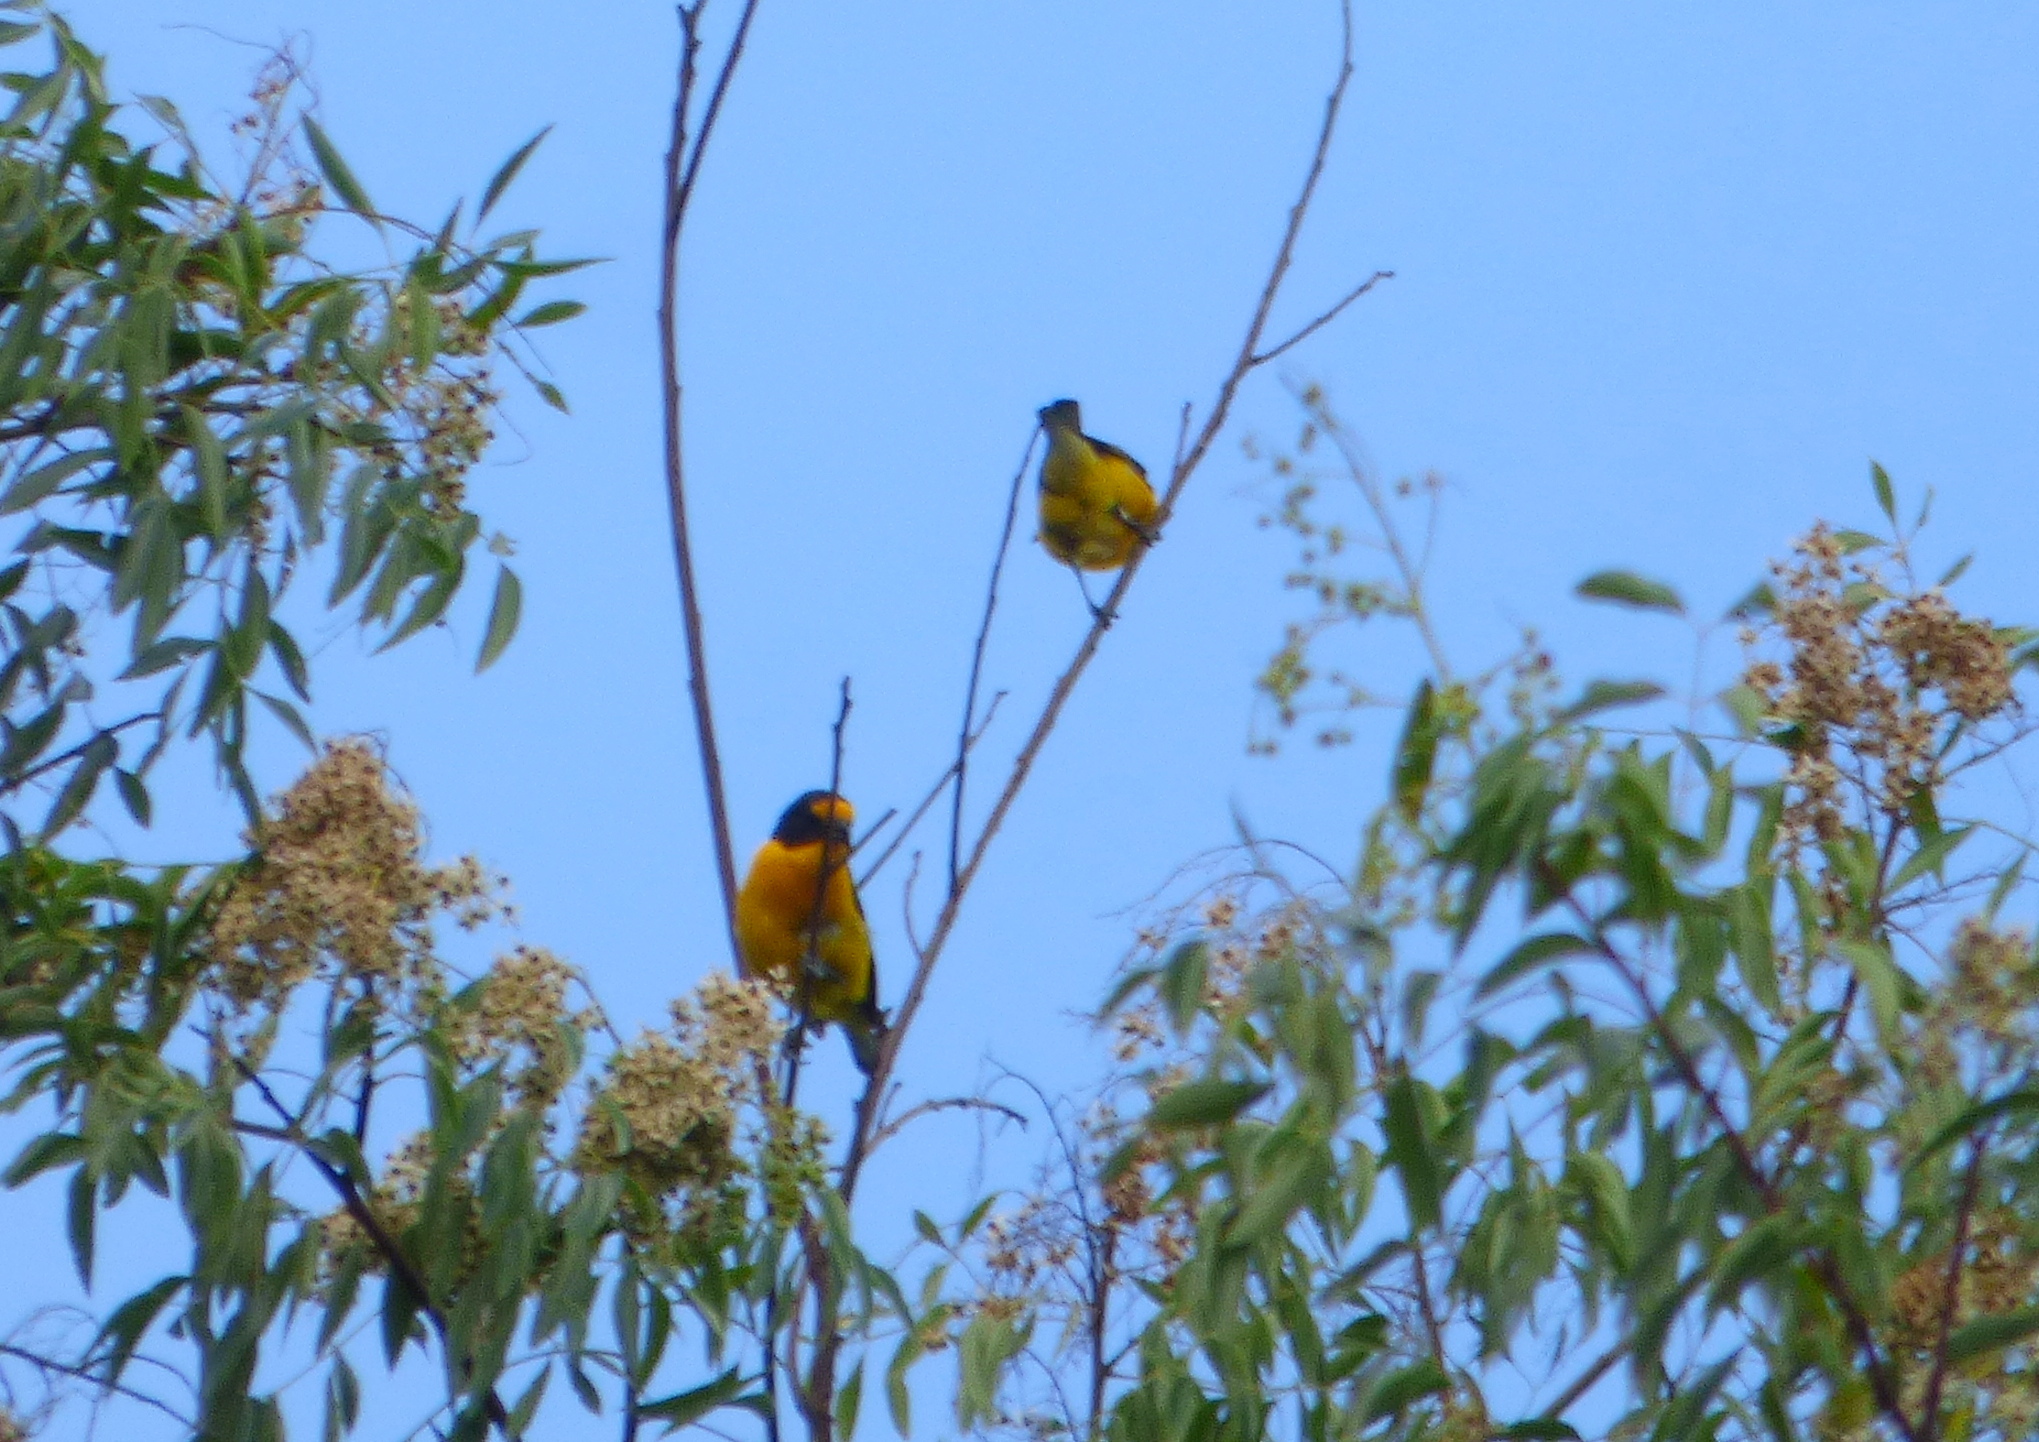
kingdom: Animalia
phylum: Chordata
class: Aves
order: Passeriformes
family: Fringillidae
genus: Euphonia
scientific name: Euphonia violacea
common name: Violaceous euphonia
